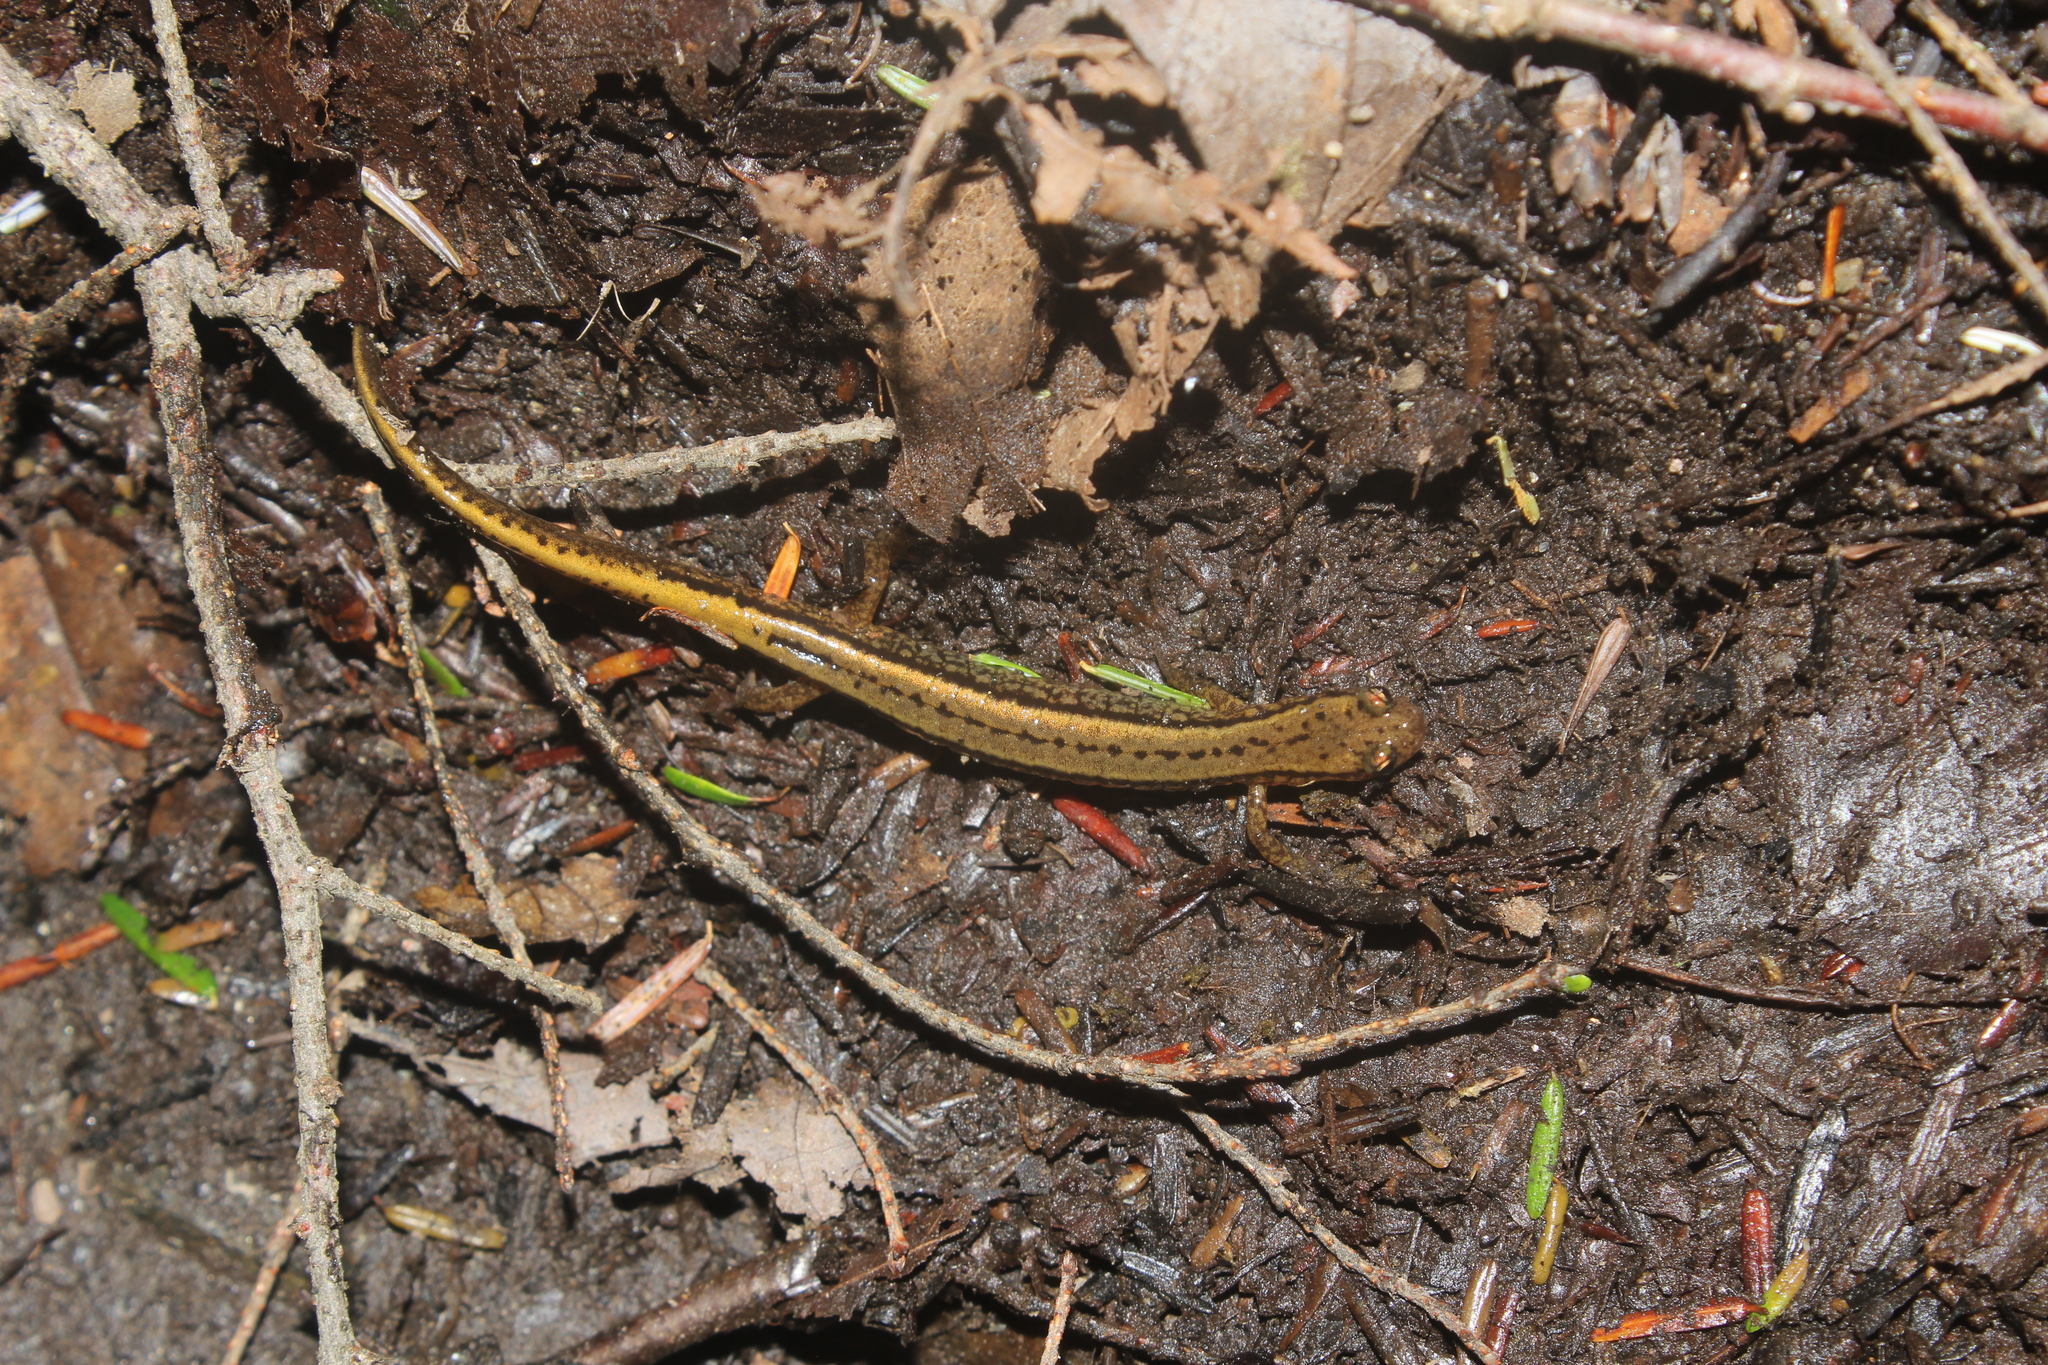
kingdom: Animalia
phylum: Chordata
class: Amphibia
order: Caudata
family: Plethodontidae
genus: Eurycea
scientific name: Eurycea bislineata
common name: Northern two-lined salamander
